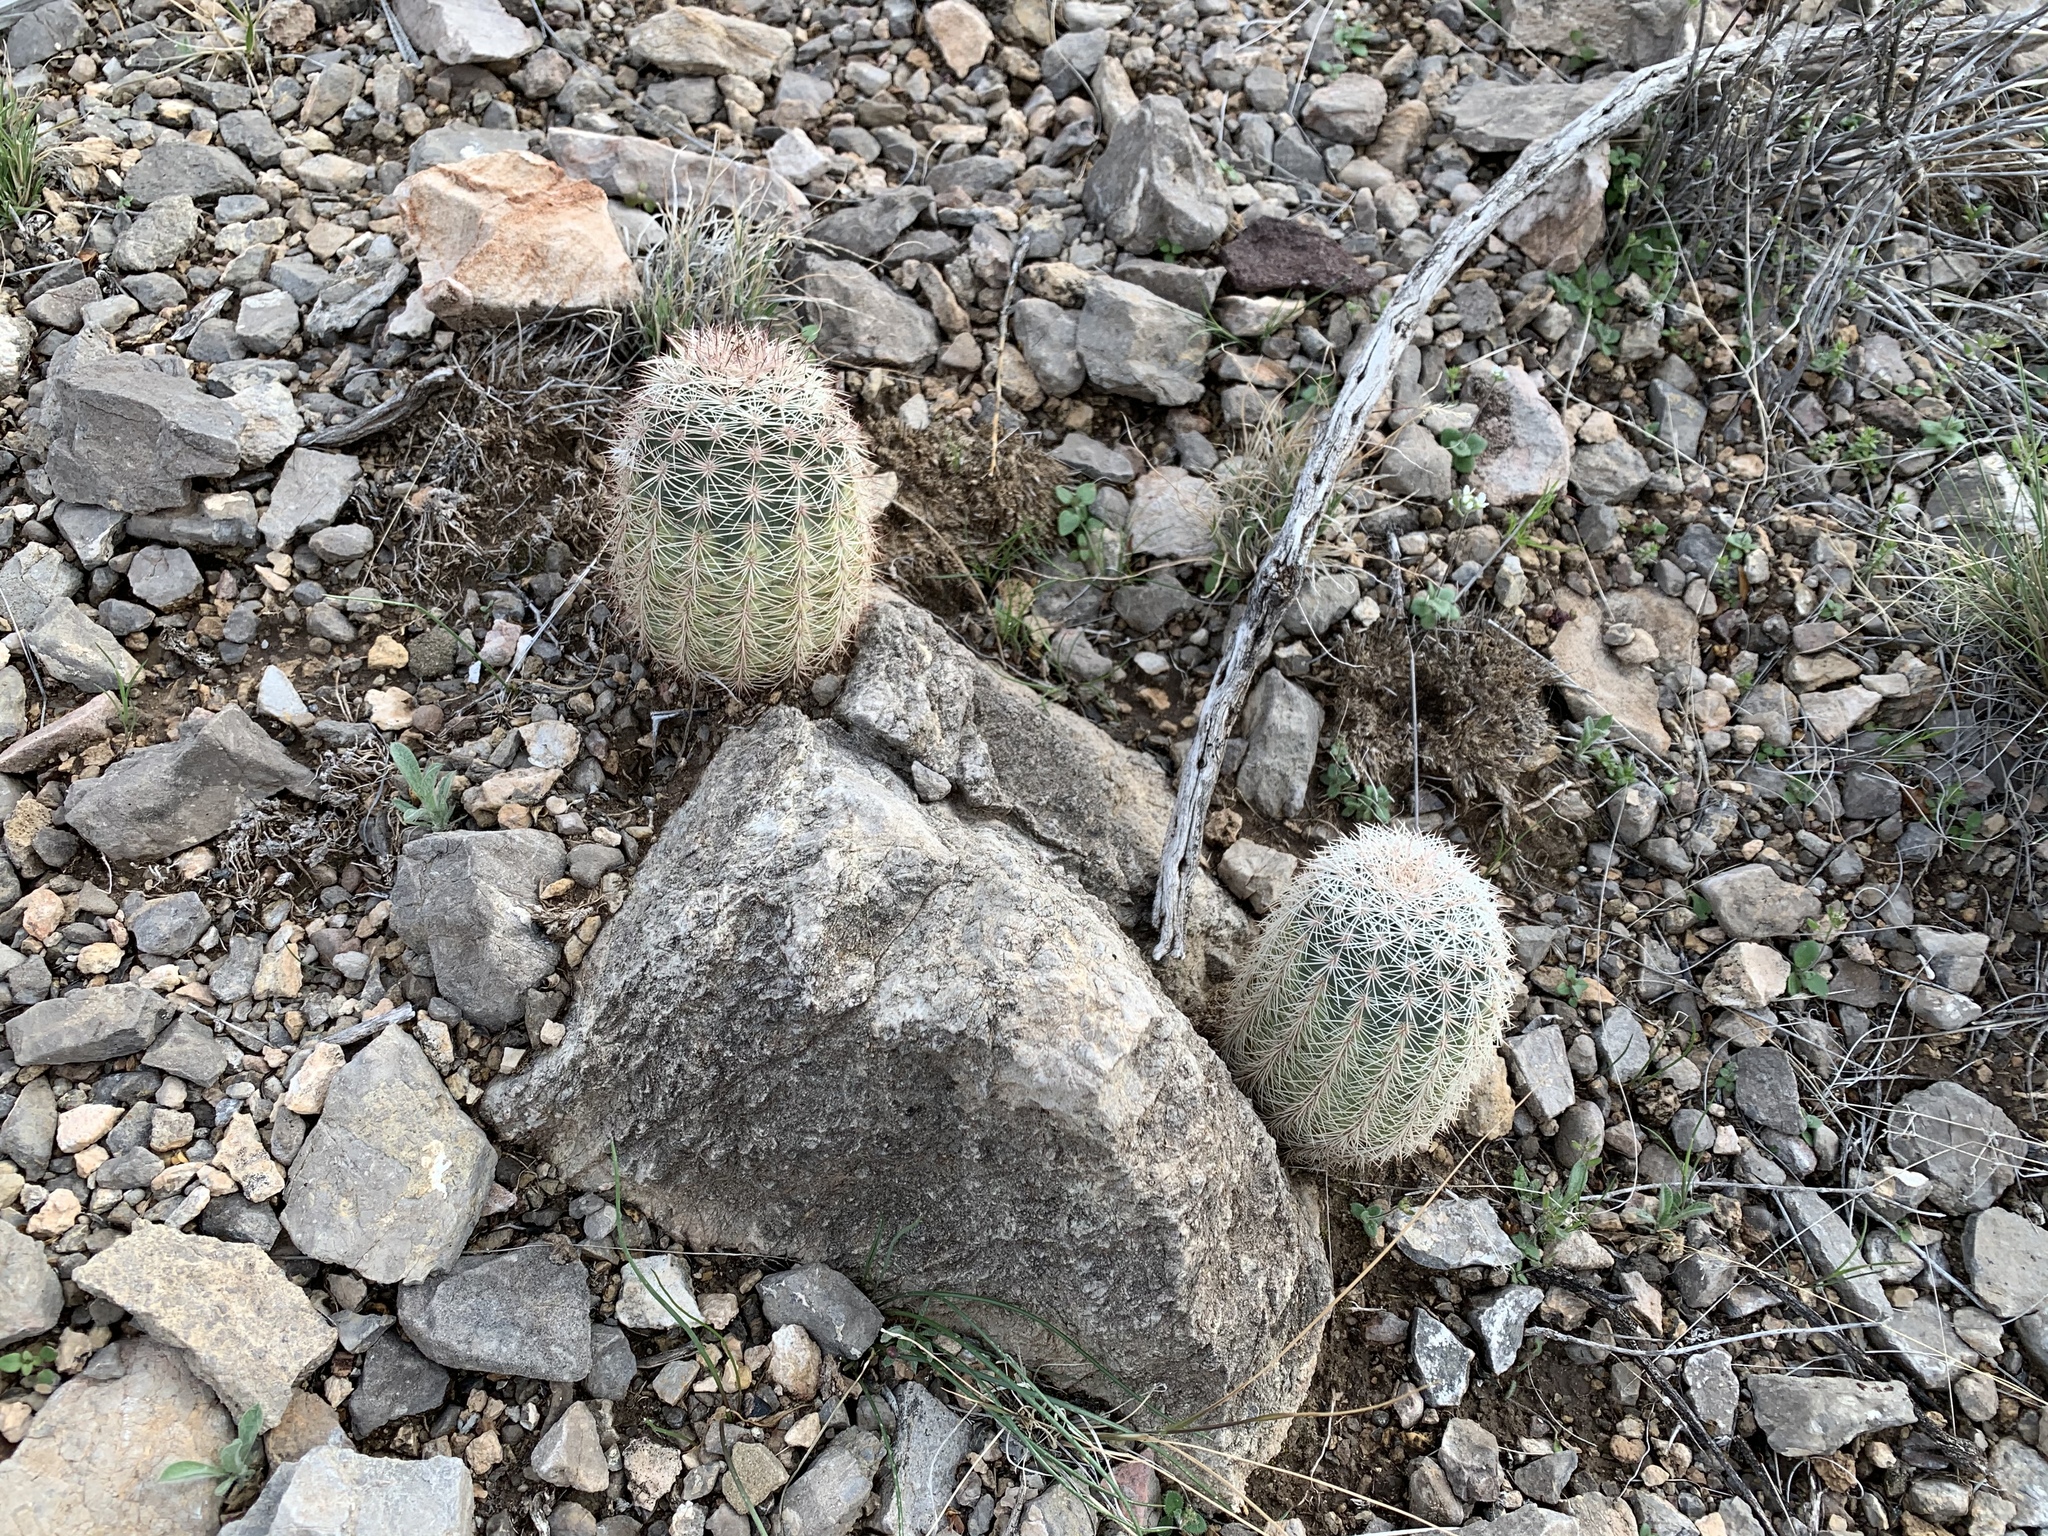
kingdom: Plantae
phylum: Tracheophyta
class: Magnoliopsida
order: Caryophyllales
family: Cactaceae
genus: Echinocereus
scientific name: Echinocereus dasyacanthus
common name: Spiny hedgehog cactus
